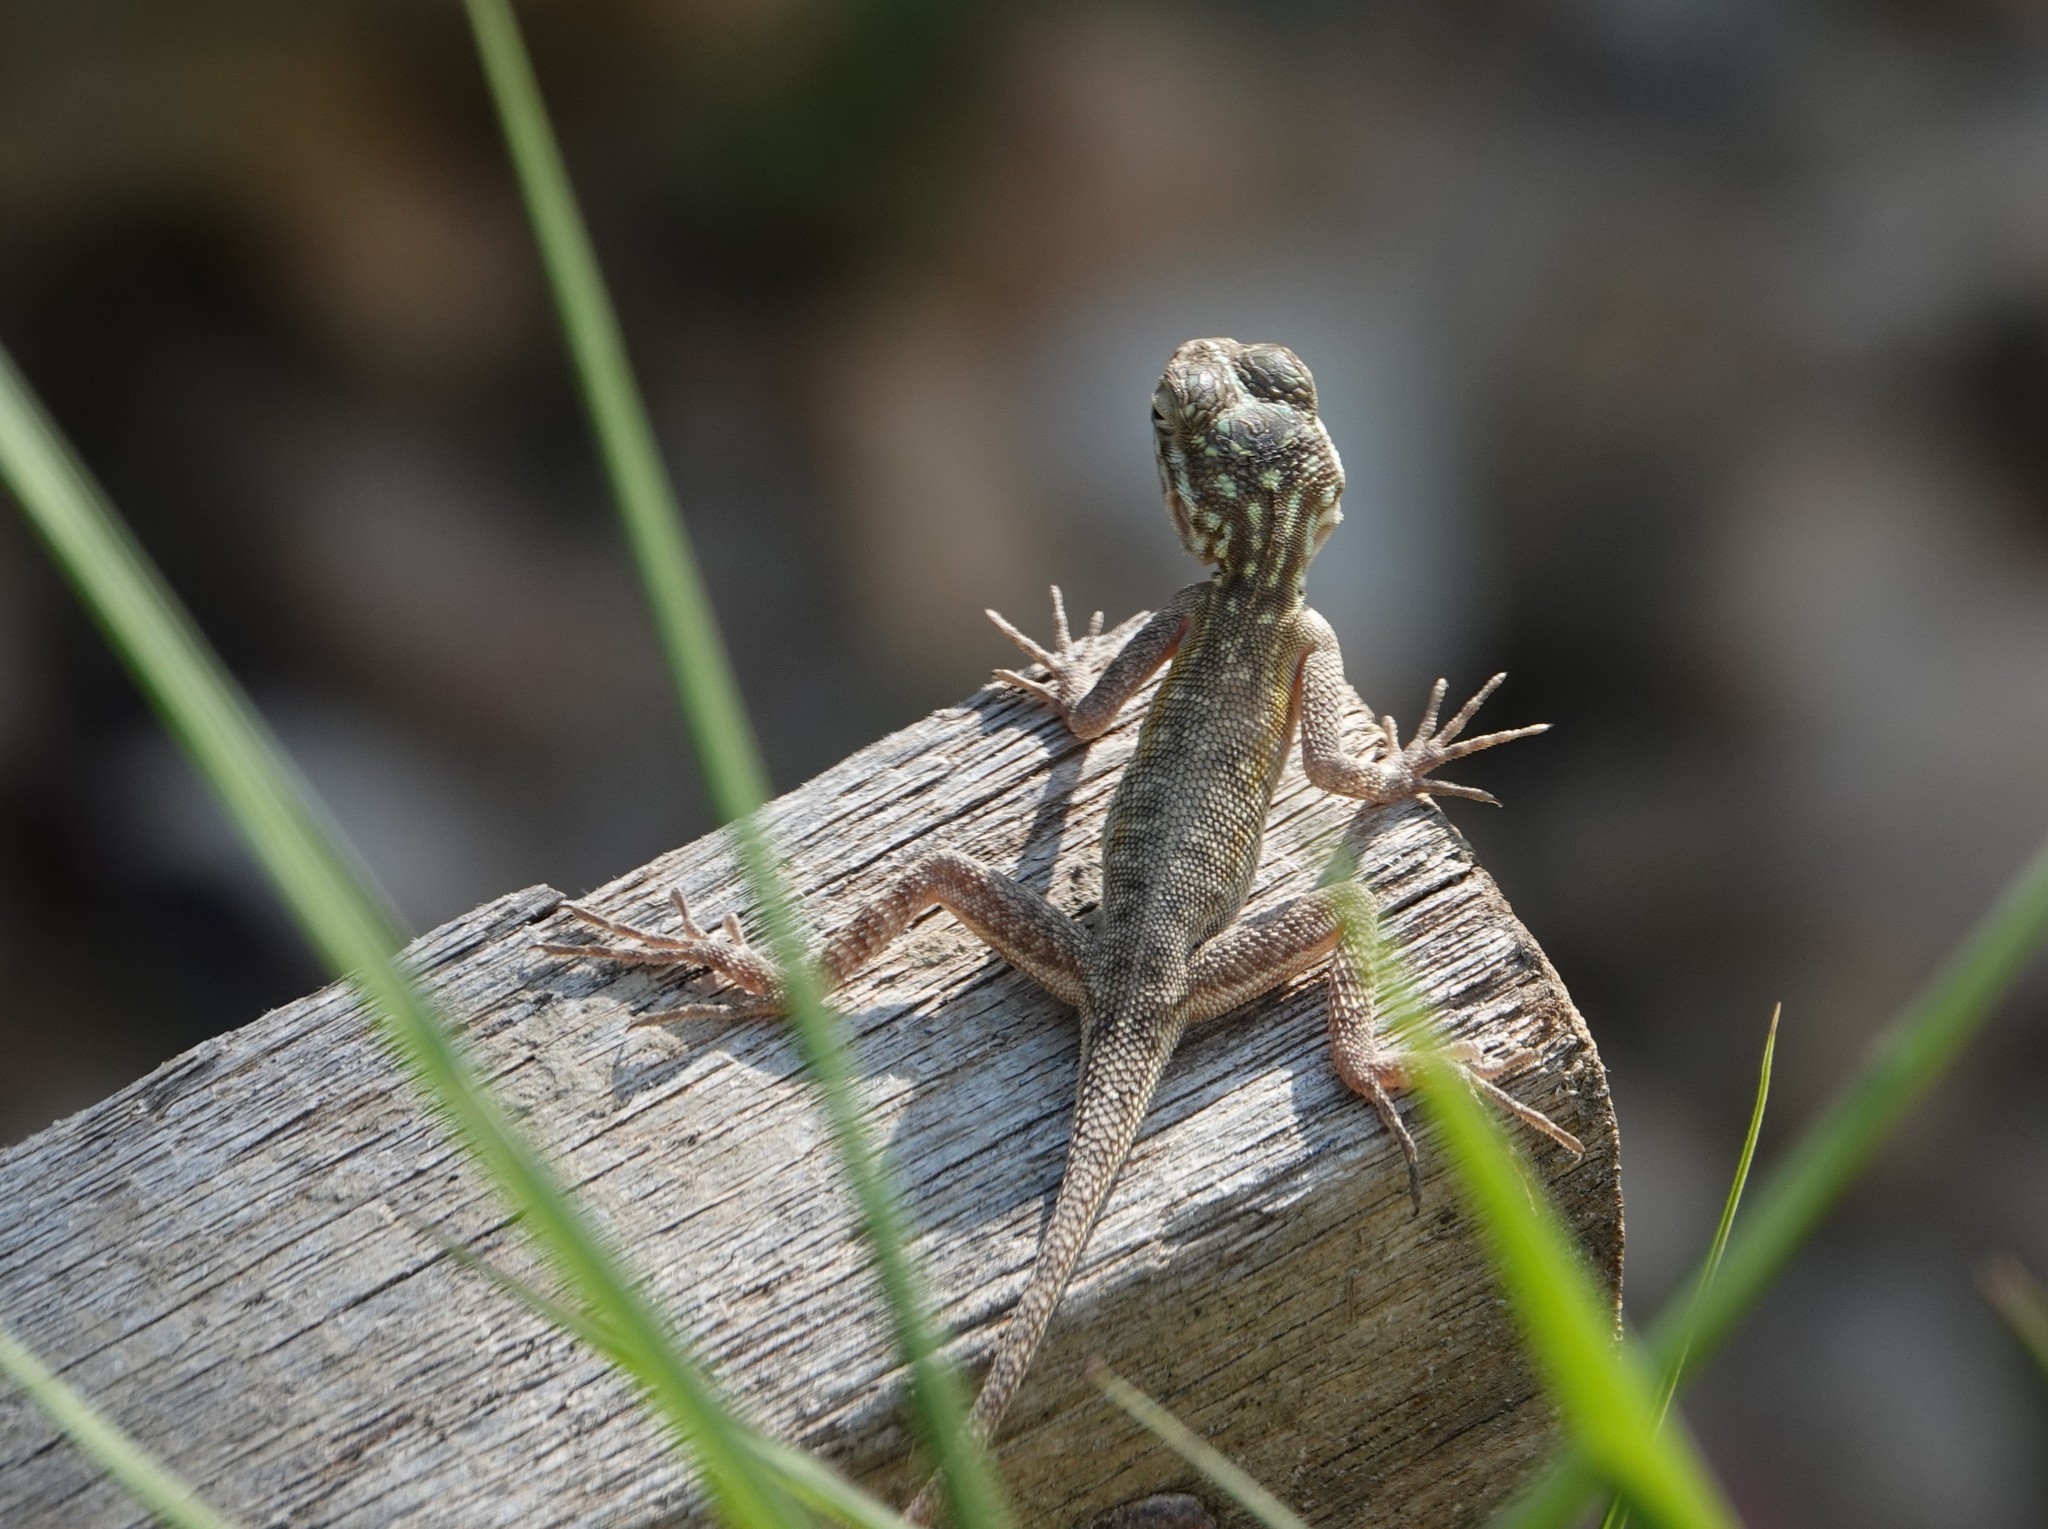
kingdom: Animalia
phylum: Chordata
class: Squamata
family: Agamidae
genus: Agama
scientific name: Agama finchi
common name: Finch’s agama
